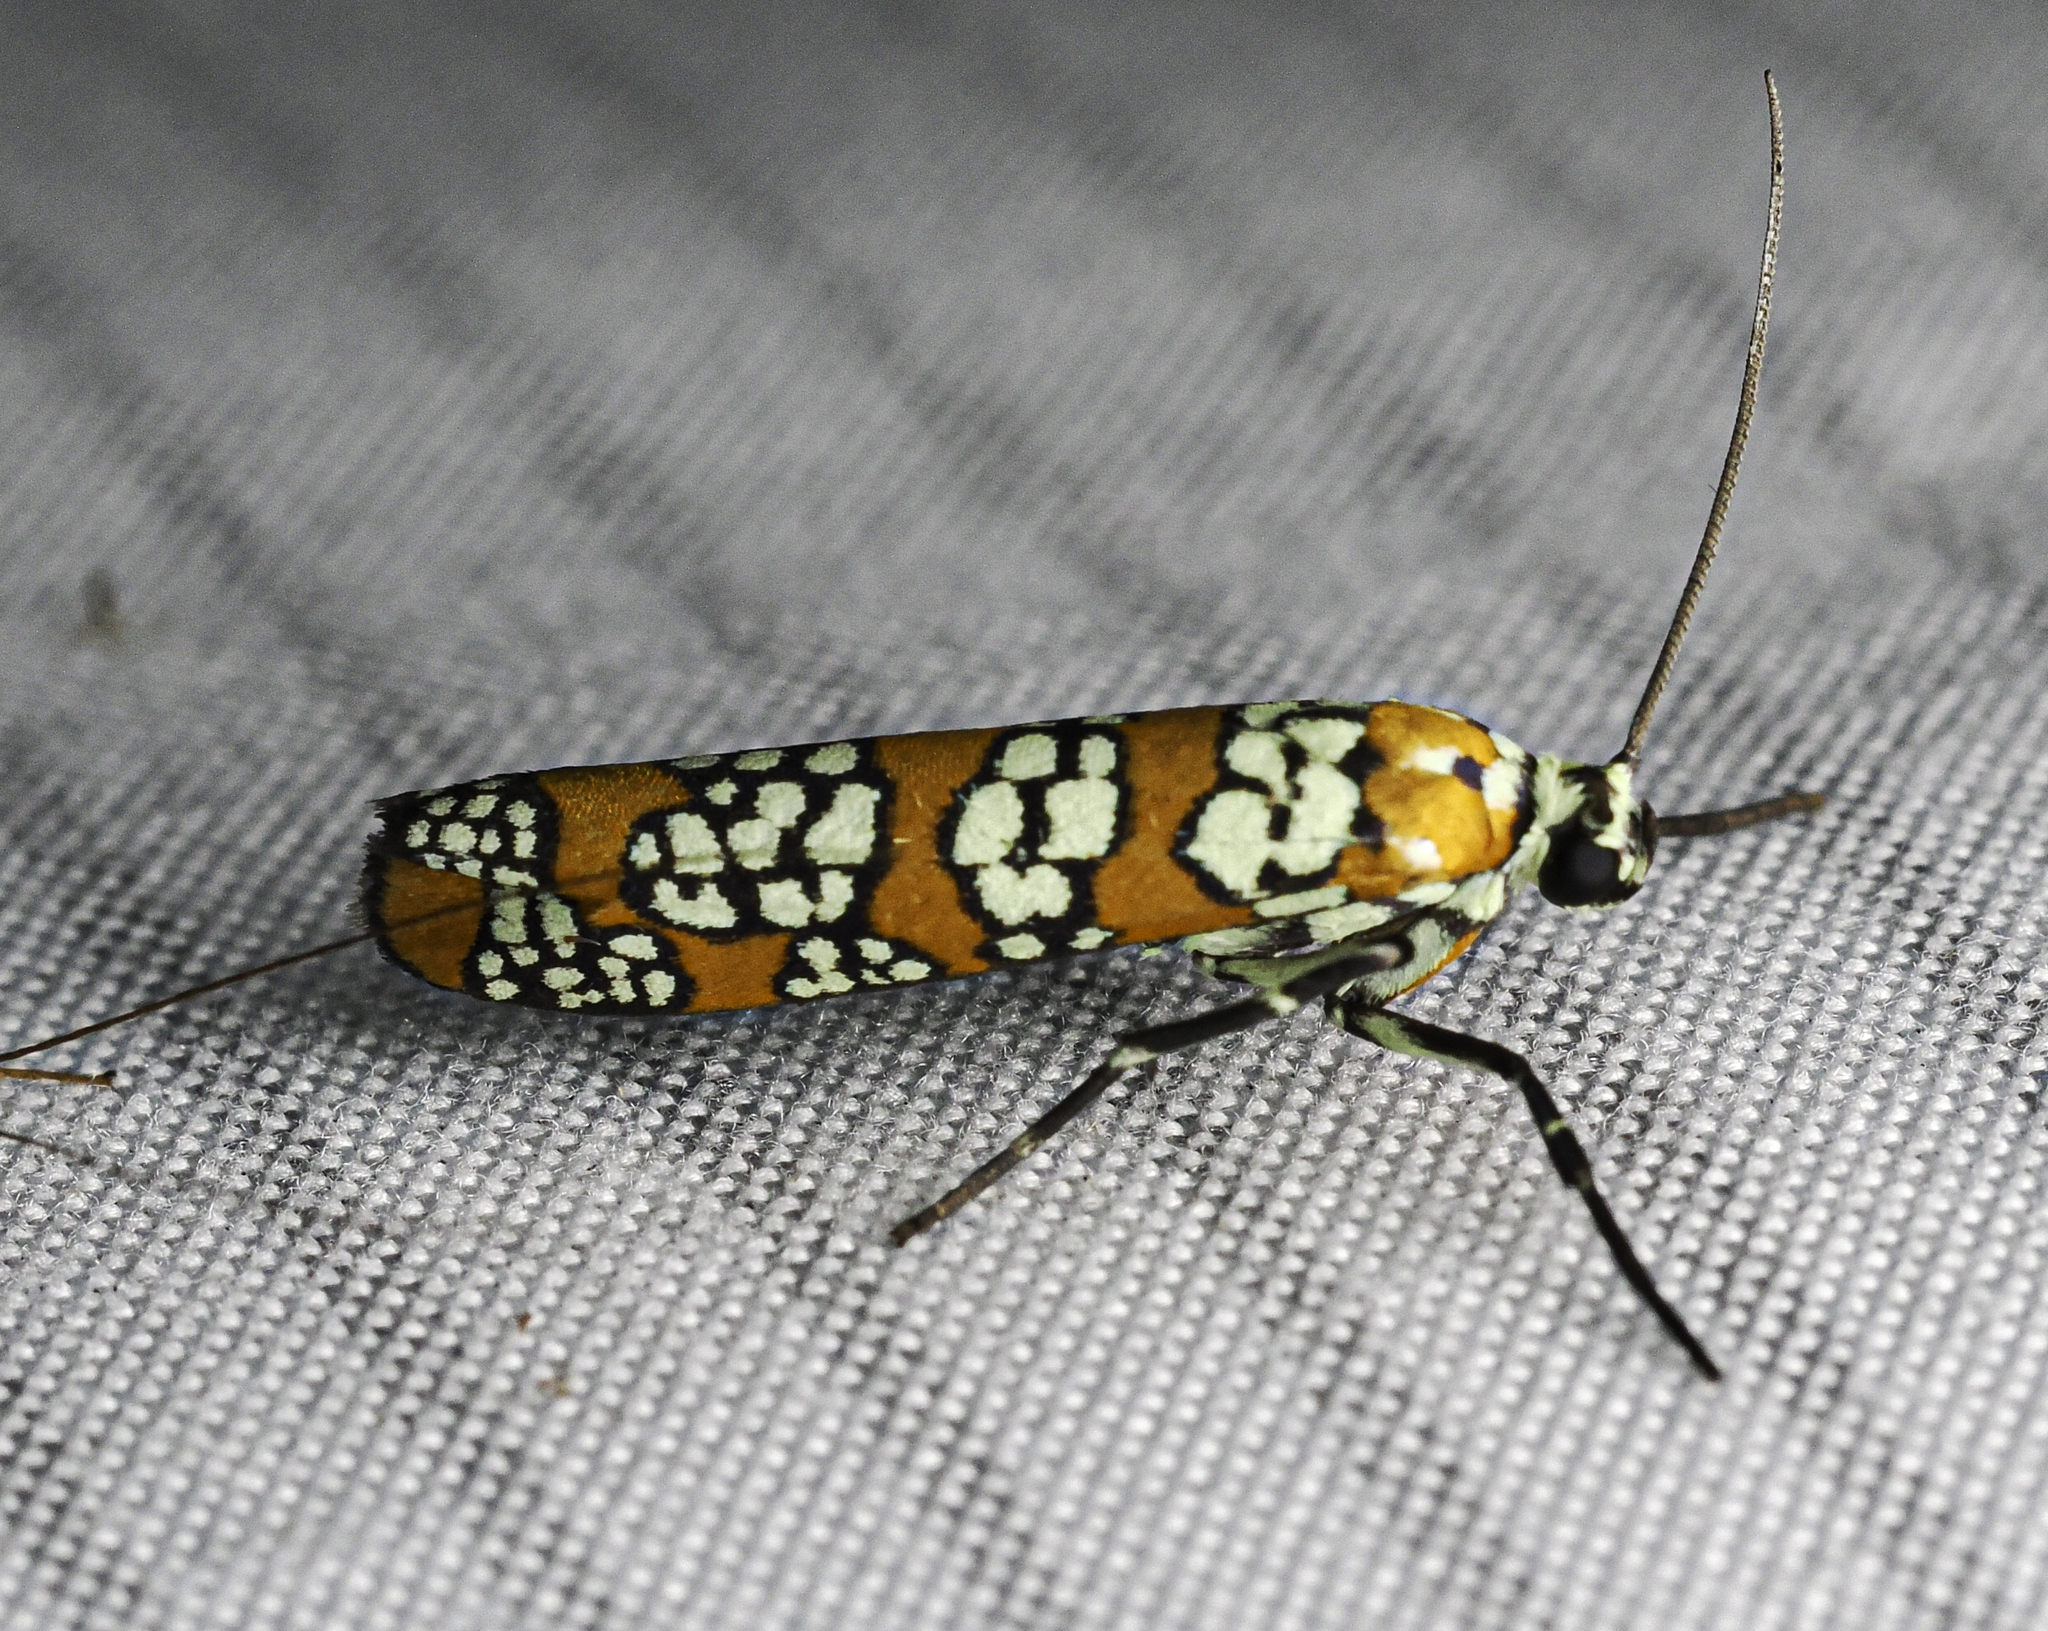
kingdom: Animalia
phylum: Arthropoda
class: Insecta
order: Lepidoptera
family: Attevidae
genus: Atteva
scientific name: Atteva punctella
